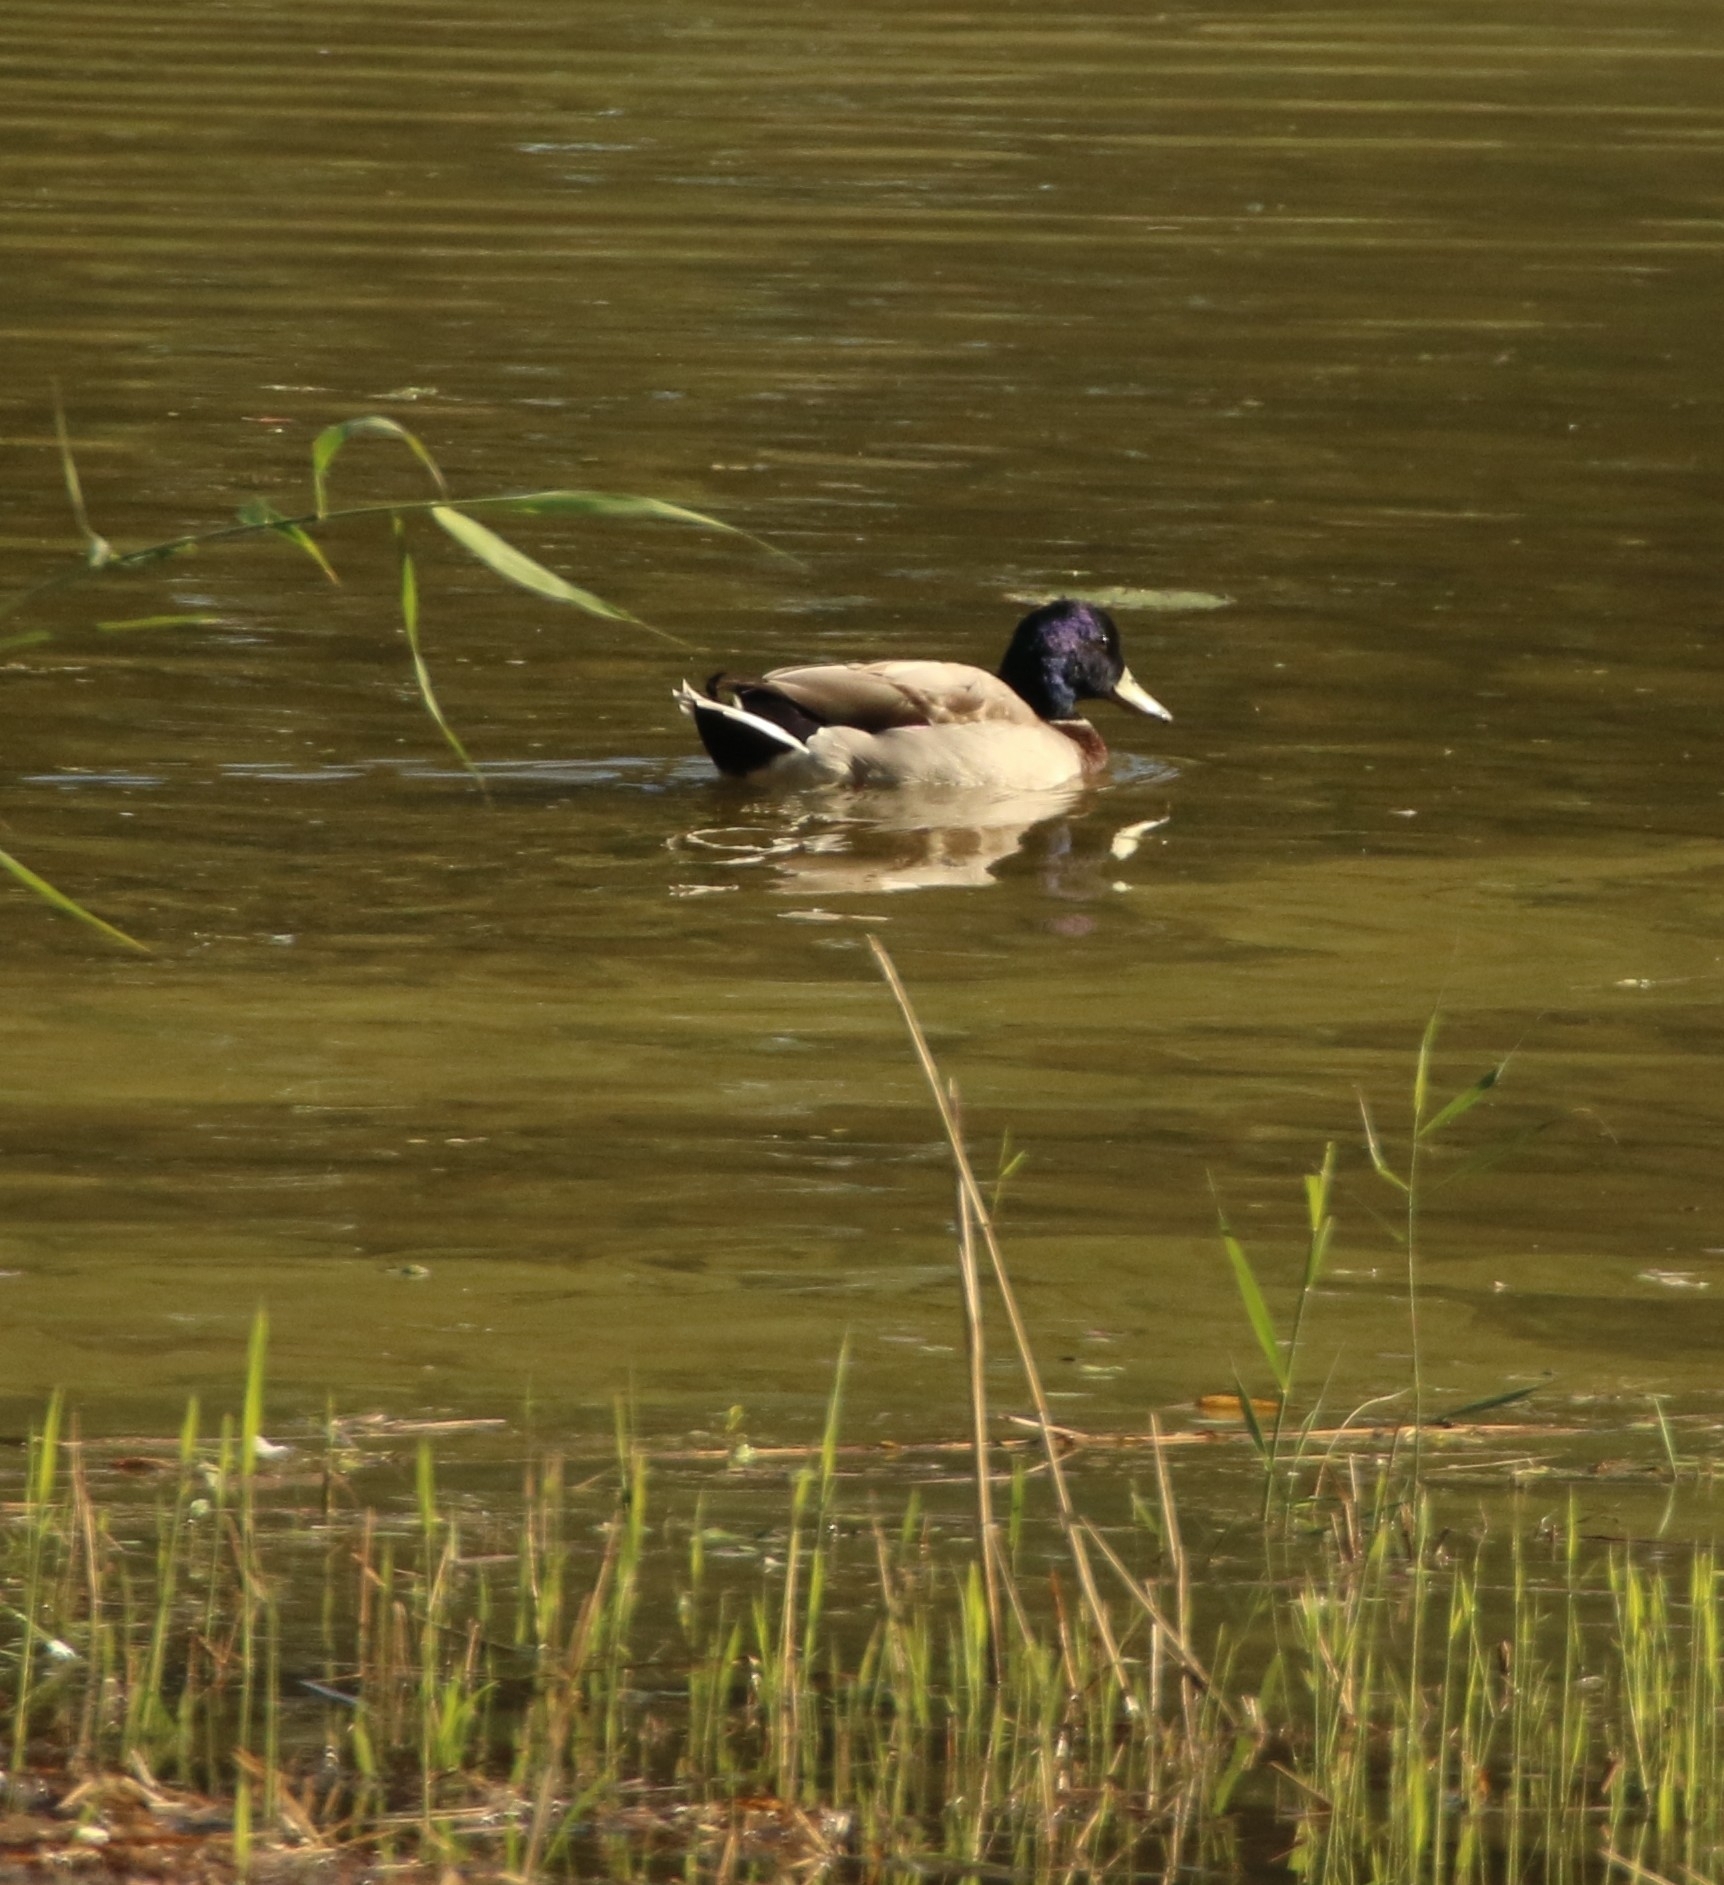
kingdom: Animalia
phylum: Chordata
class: Aves
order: Anseriformes
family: Anatidae
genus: Anas
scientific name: Anas platyrhynchos
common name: Mallard
